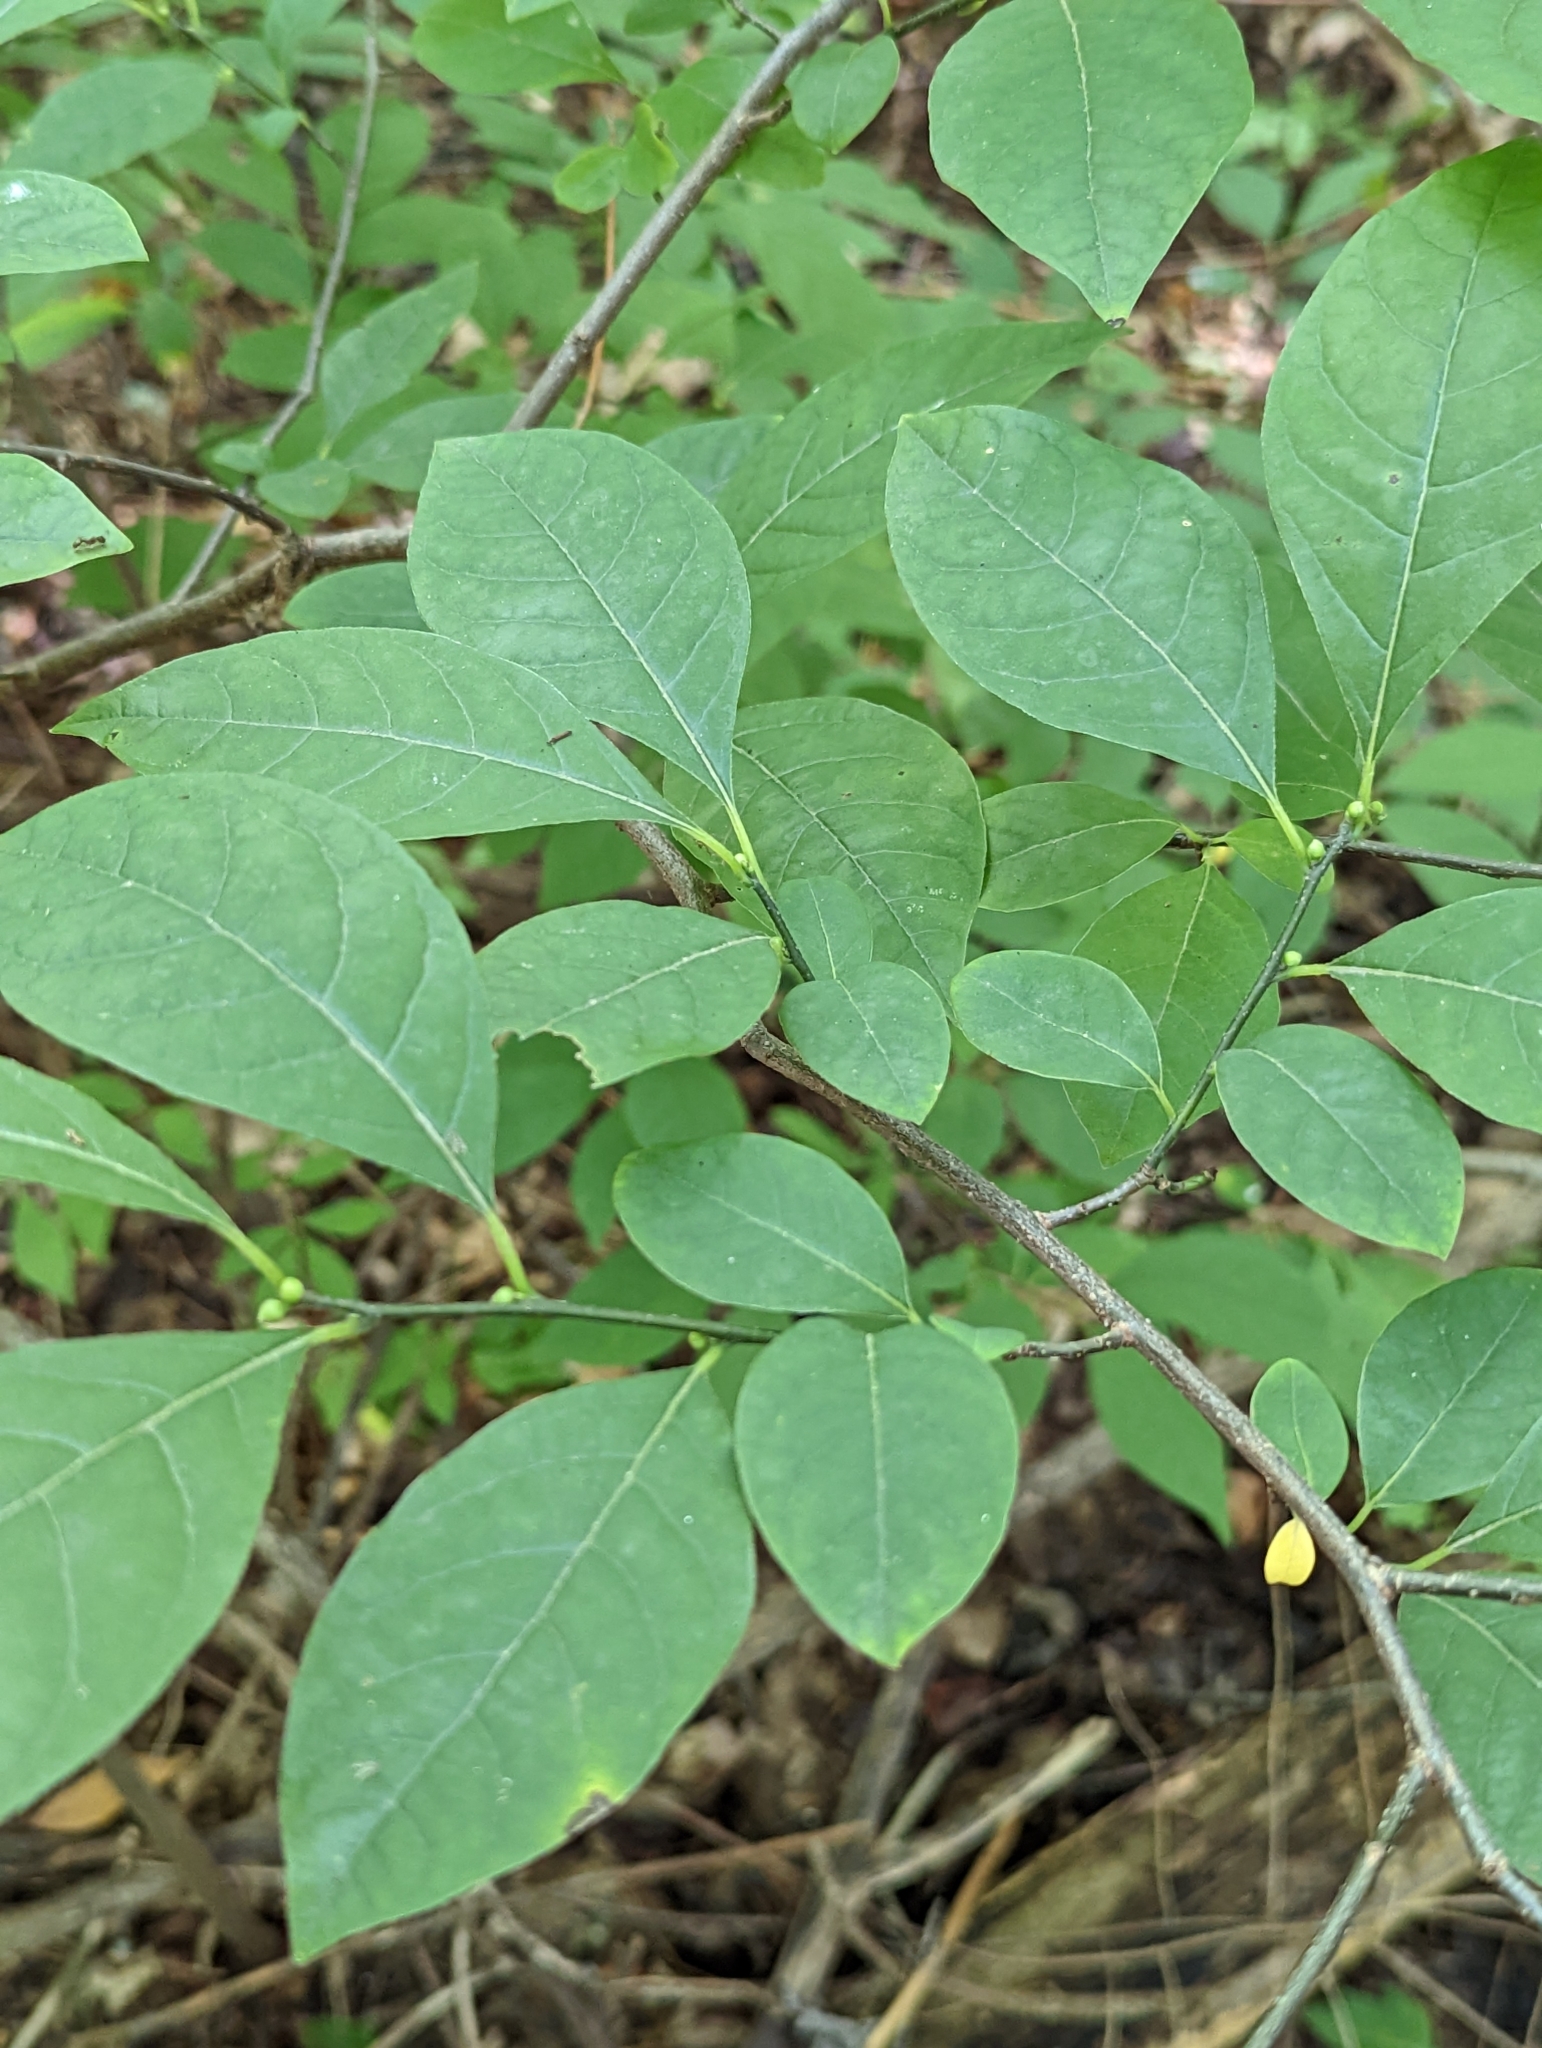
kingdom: Plantae
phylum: Tracheophyta
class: Magnoliopsida
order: Laurales
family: Lauraceae
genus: Lindera
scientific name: Lindera benzoin
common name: Spicebush
